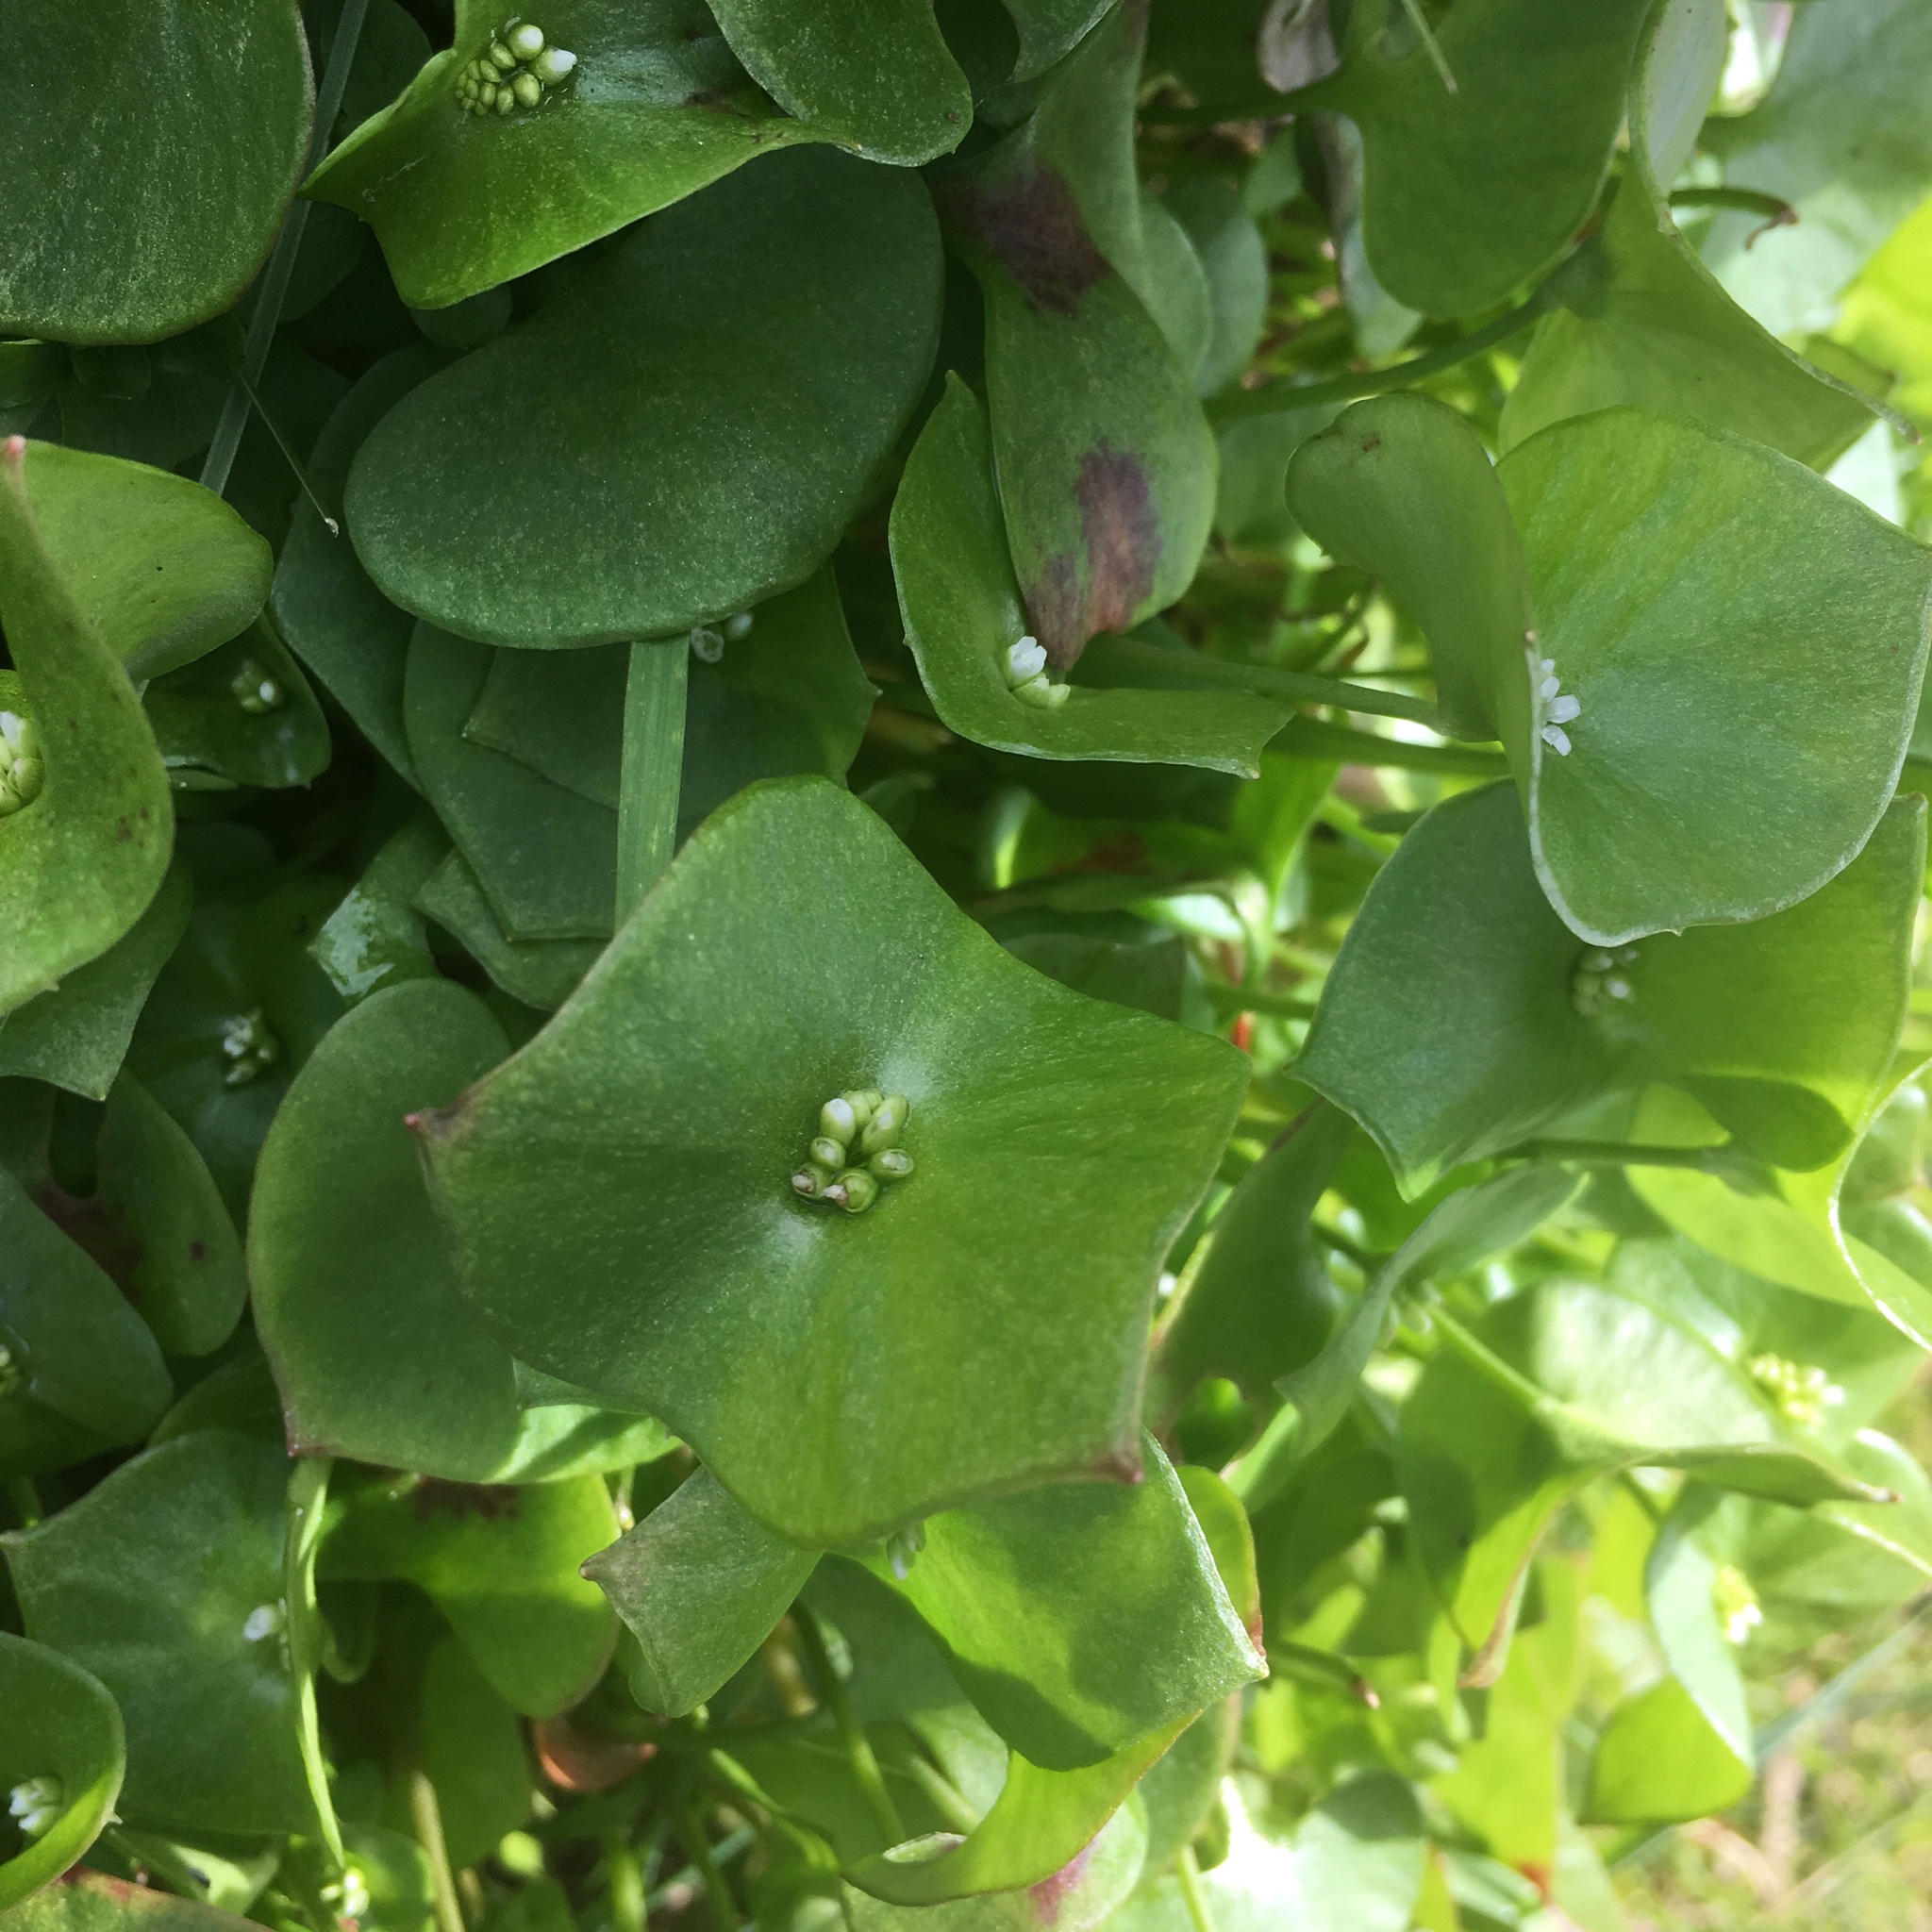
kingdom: Plantae
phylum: Tracheophyta
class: Magnoliopsida
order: Caryophyllales
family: Montiaceae
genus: Claytonia
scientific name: Claytonia perfoliata
